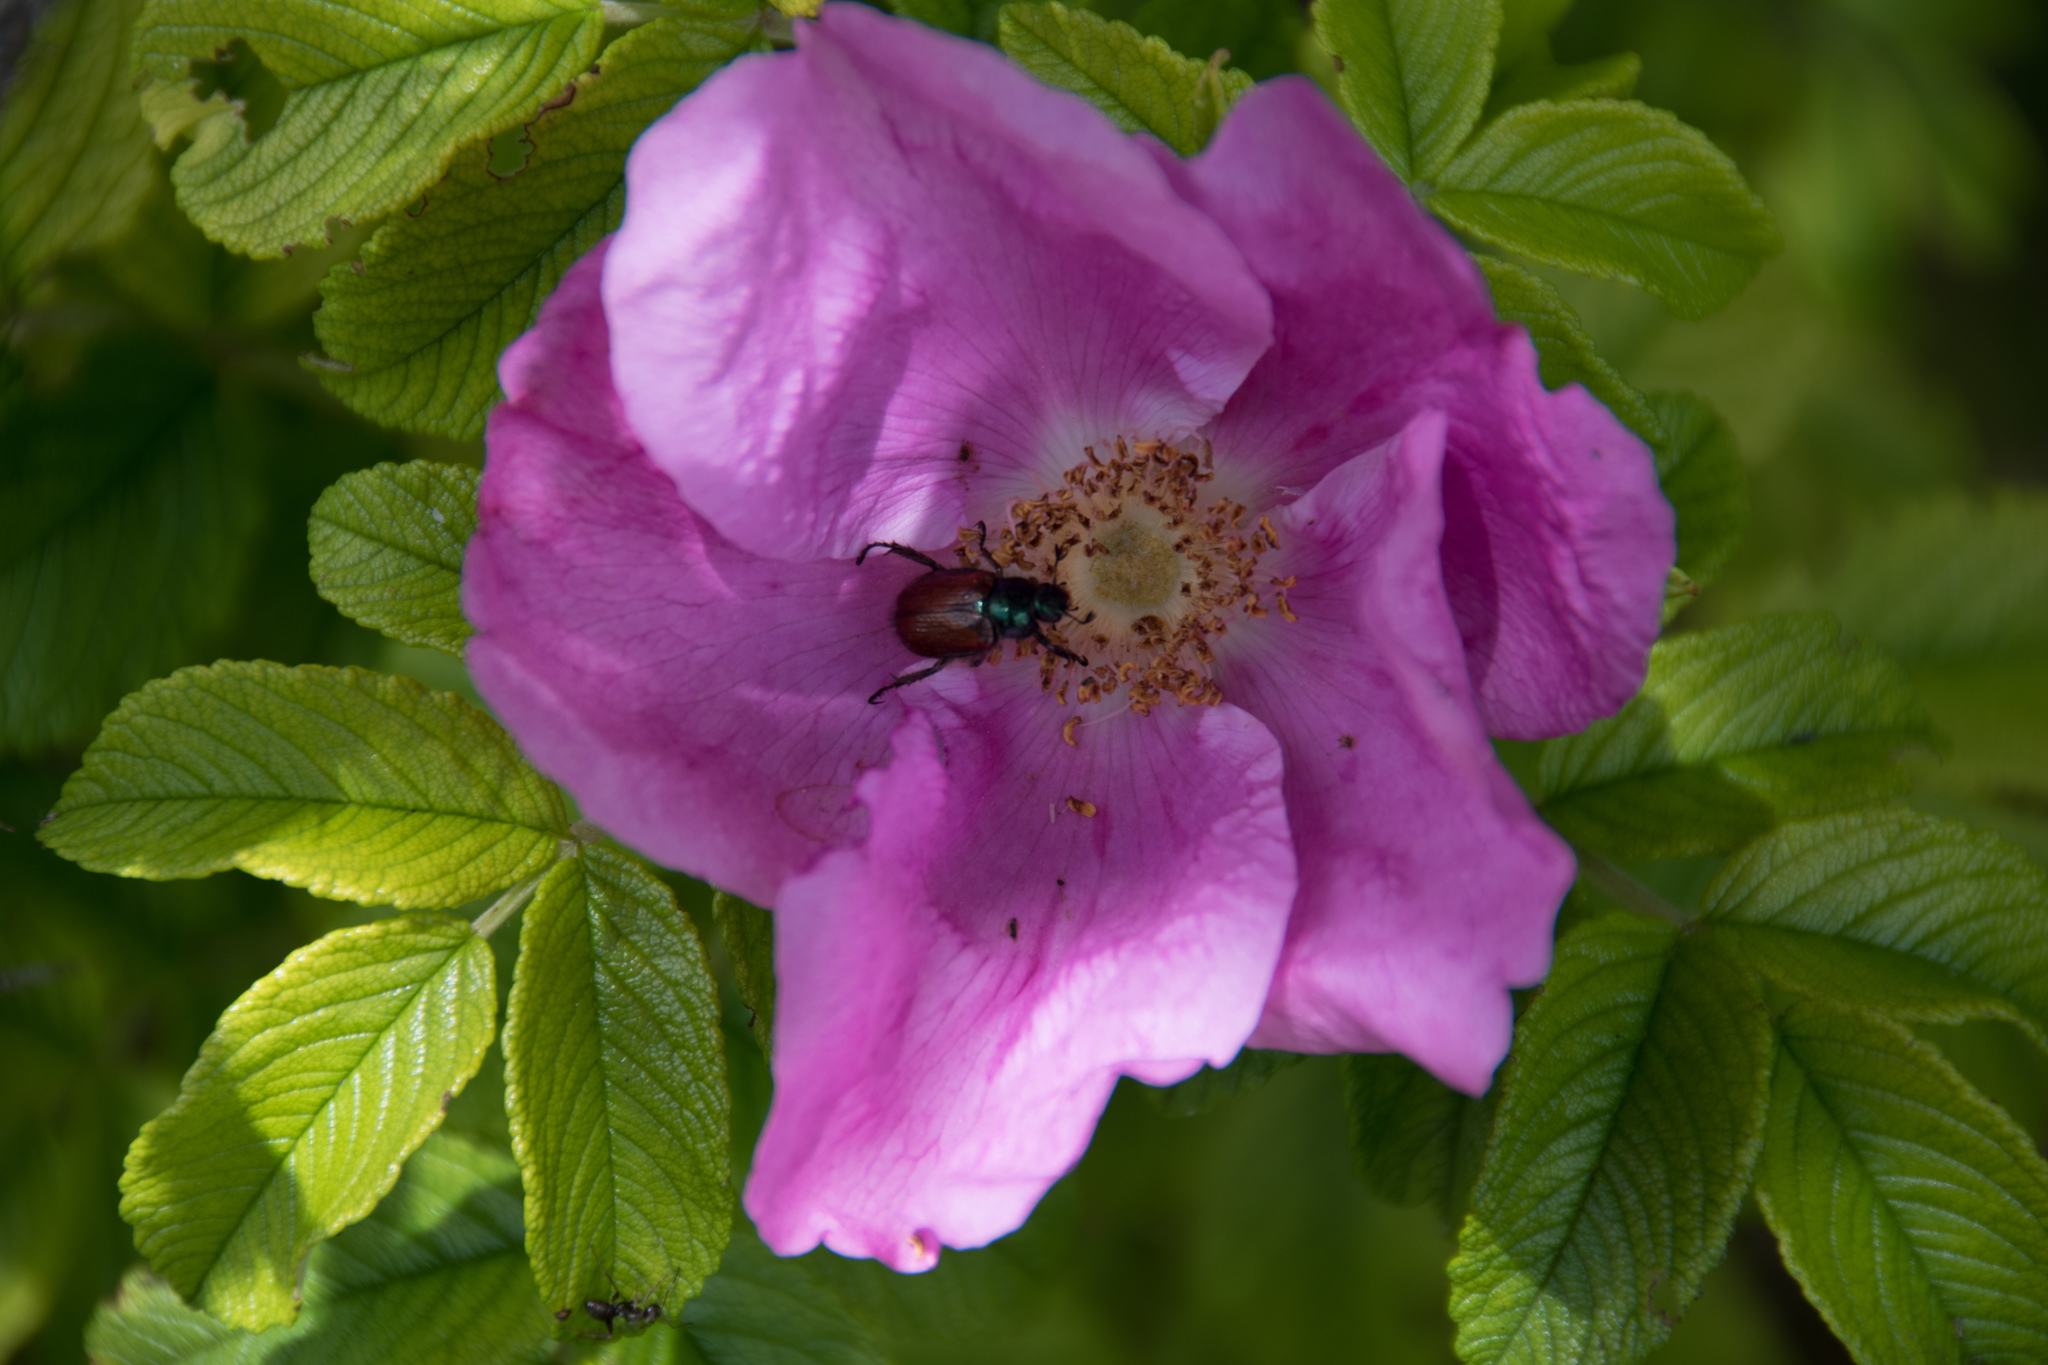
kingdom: Animalia
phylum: Arthropoda
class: Insecta
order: Coleoptera
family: Scarabaeidae
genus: Phyllopertha
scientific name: Phyllopertha horticola
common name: Garden chafer
